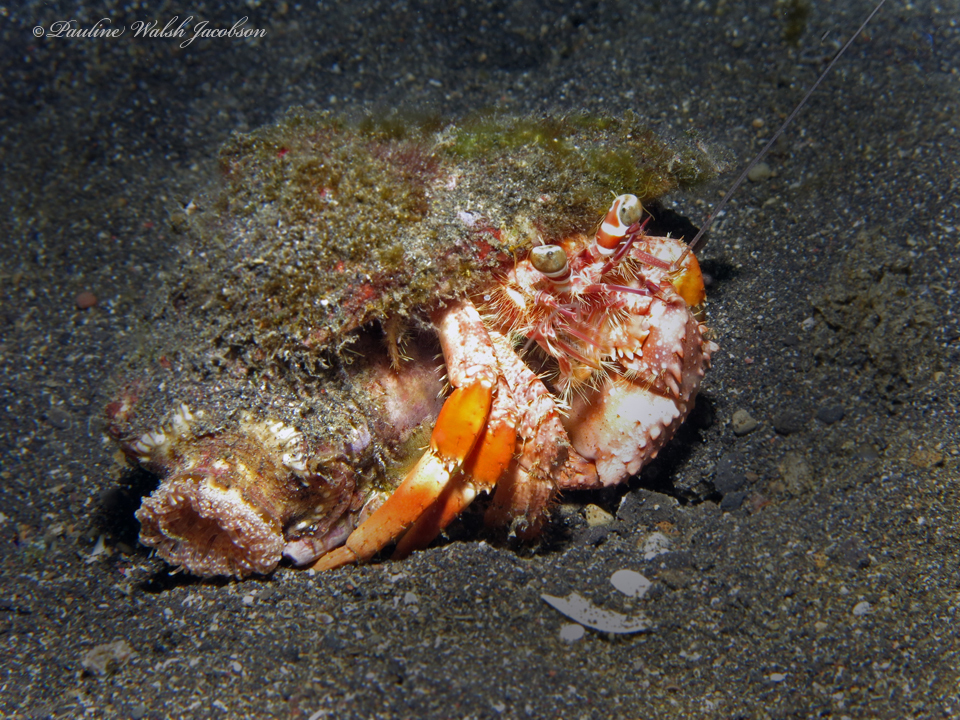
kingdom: Animalia
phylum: Arthropoda
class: Malacostraca
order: Decapoda
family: Diogenidae
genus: Dardanus
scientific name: Dardanus pedunculatus
